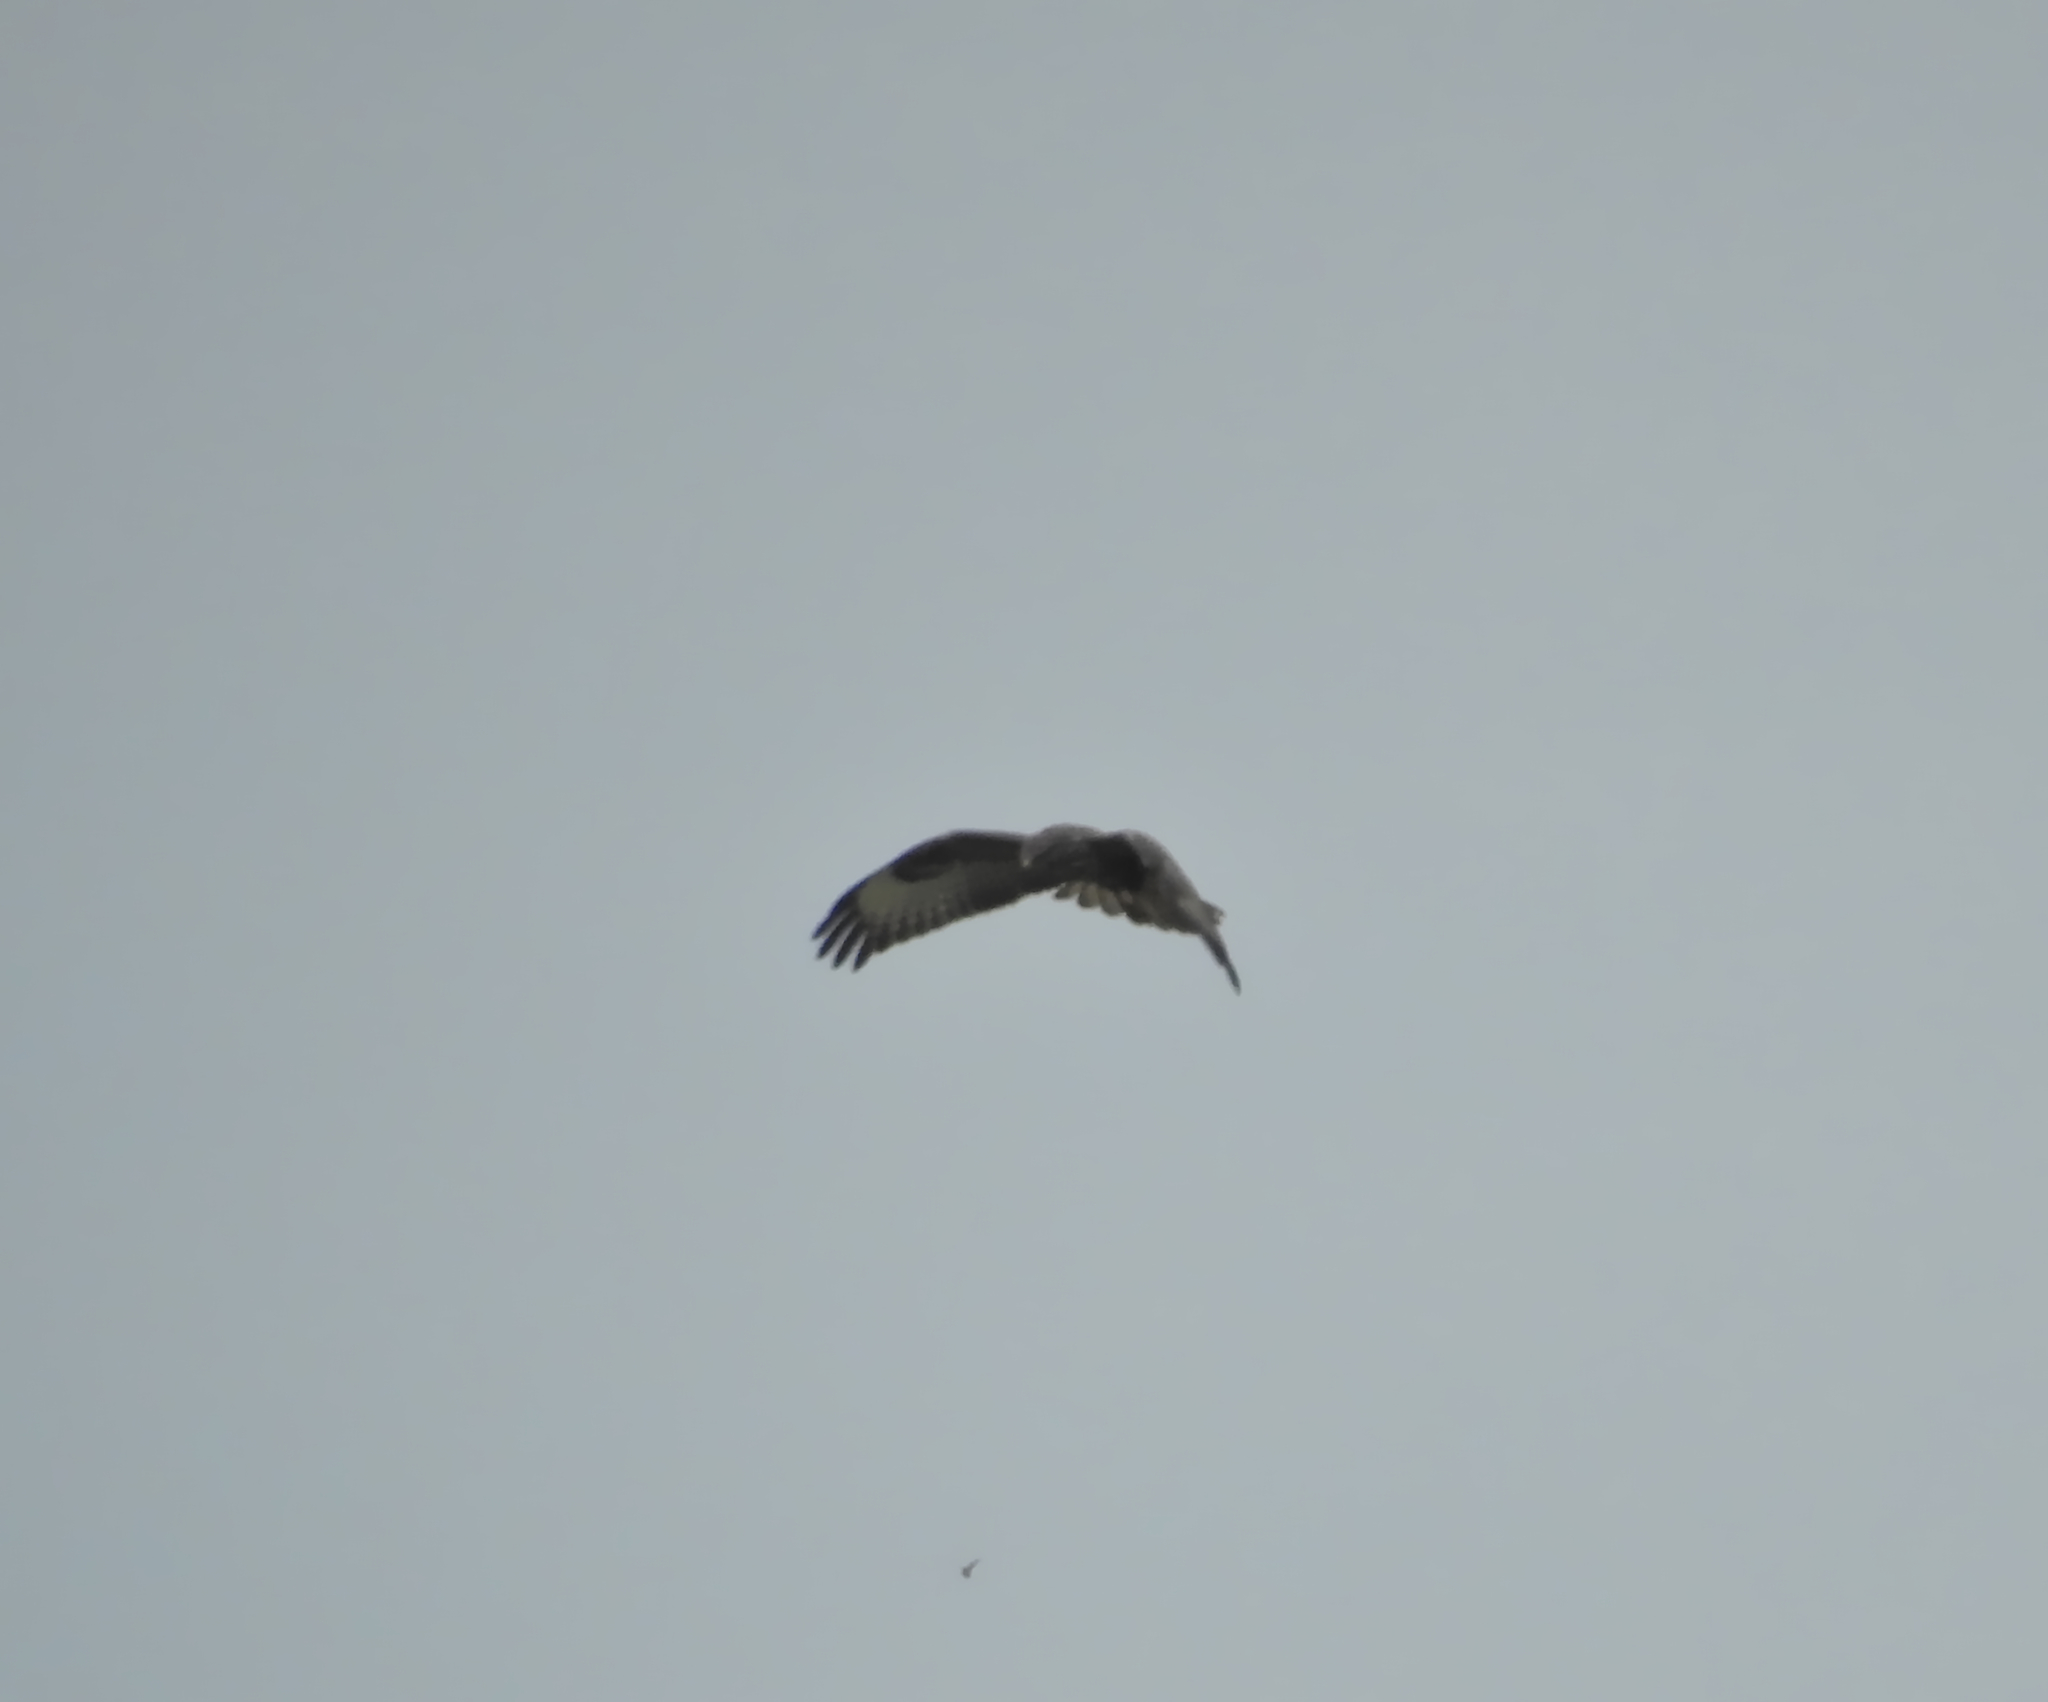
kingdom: Animalia
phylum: Chordata
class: Aves
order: Accipitriformes
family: Accipitridae
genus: Buteo
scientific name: Buteo buteo
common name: Common buzzard
